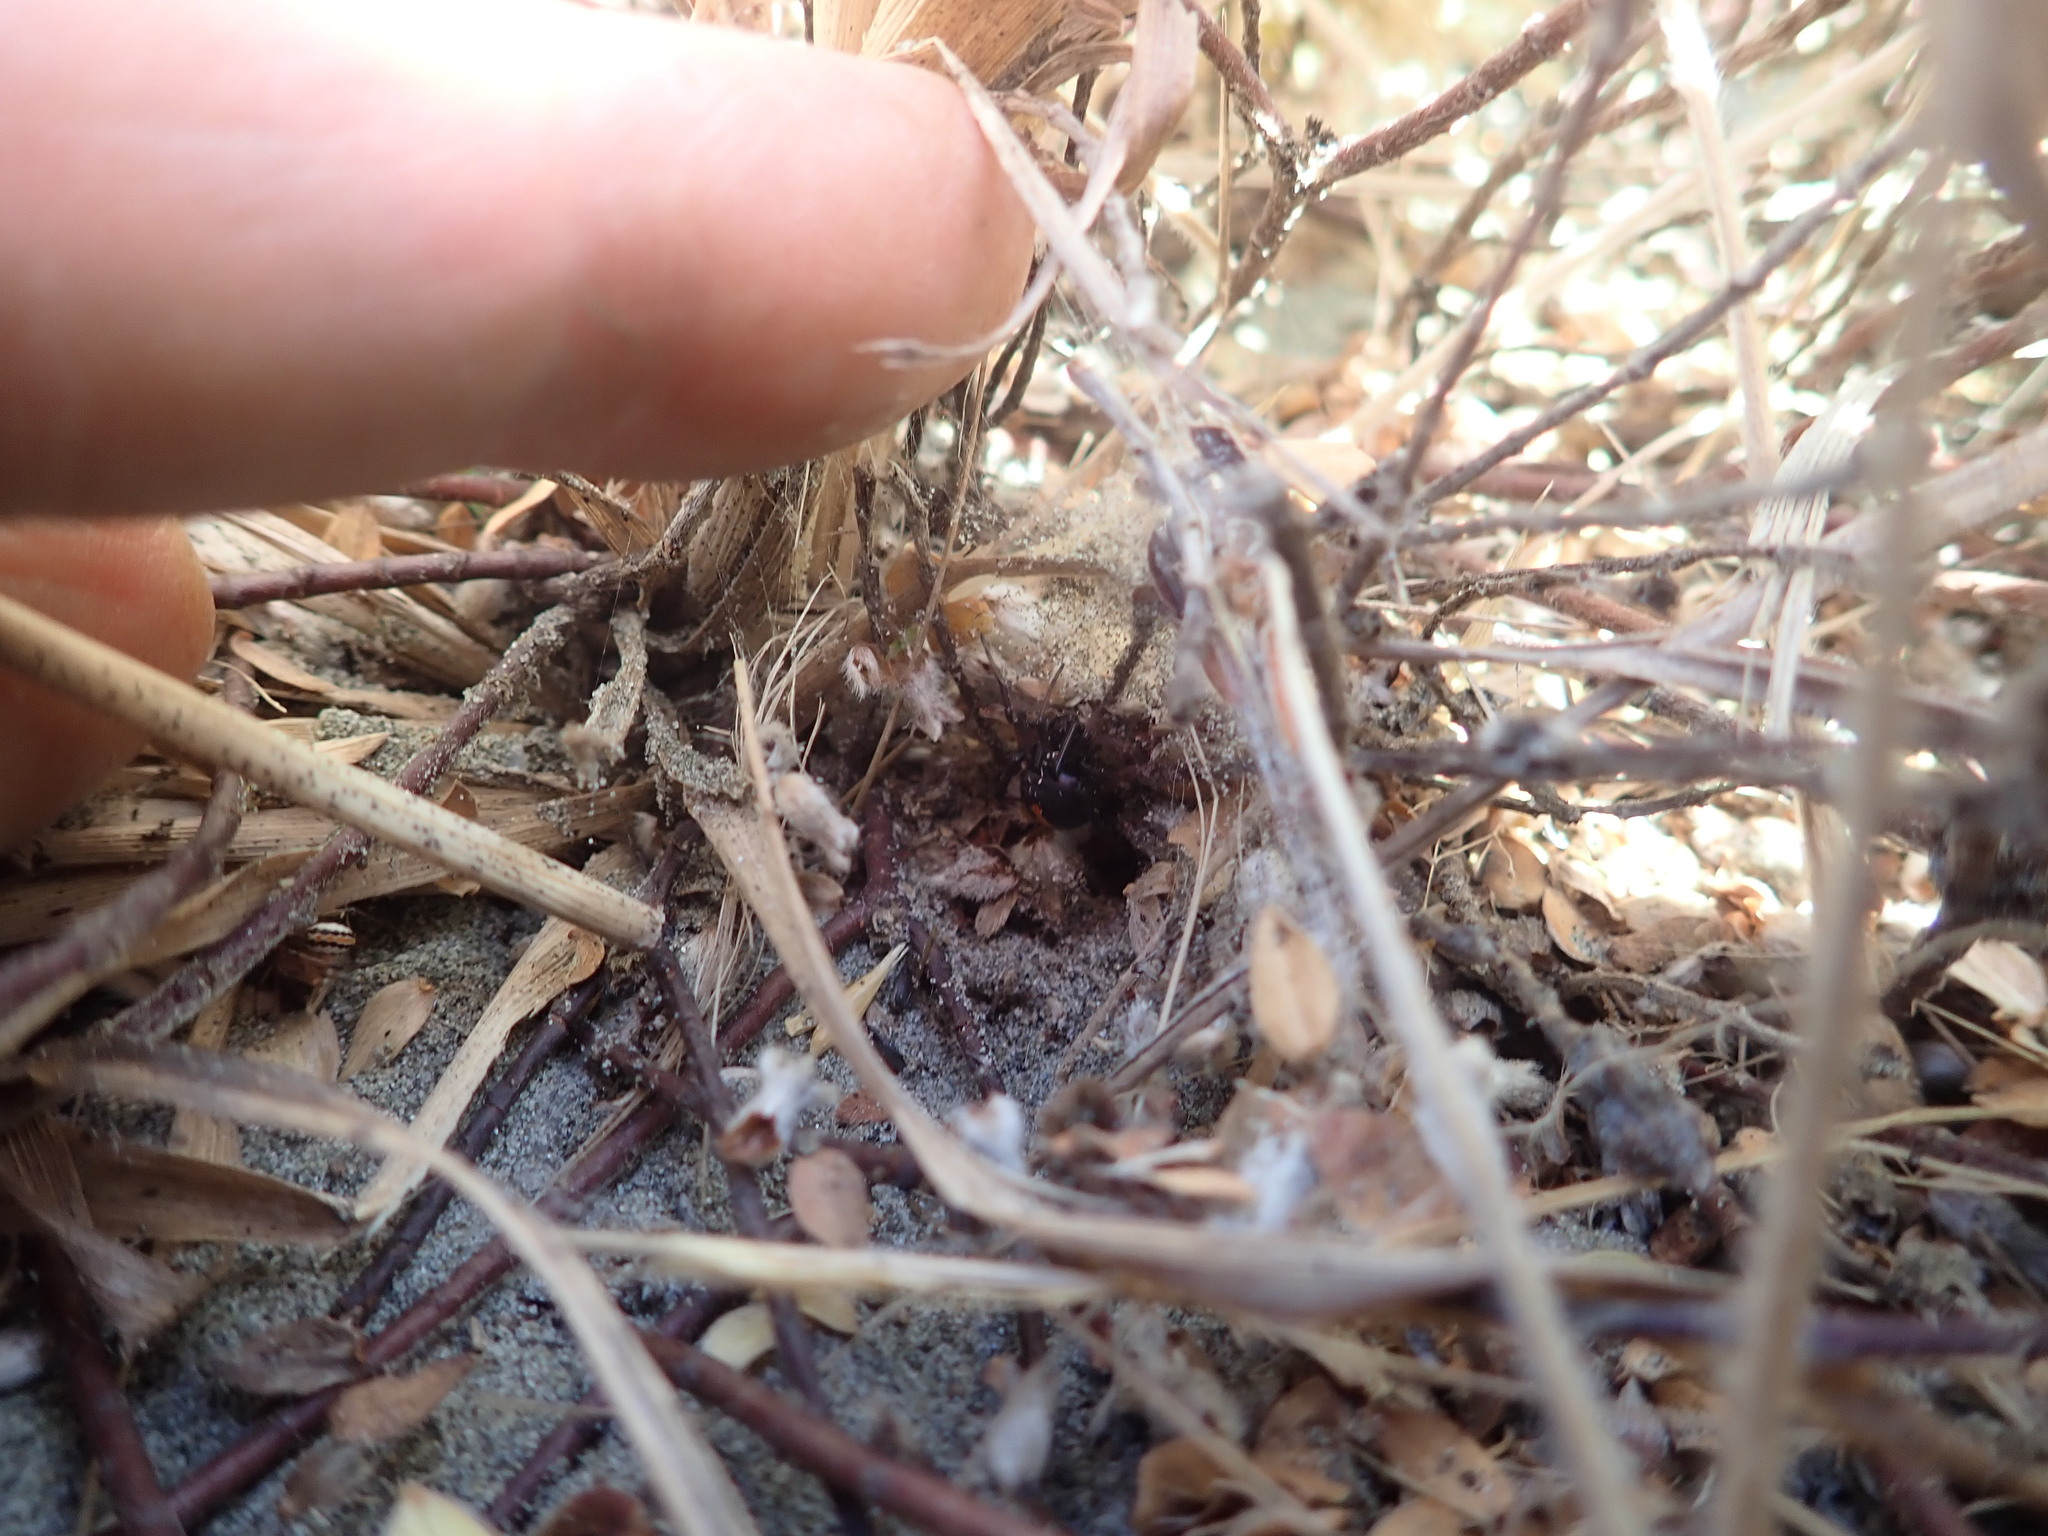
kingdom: Animalia
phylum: Arthropoda
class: Arachnida
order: Araneae
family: Theridiidae
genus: Latrodectus
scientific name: Latrodectus katipo
